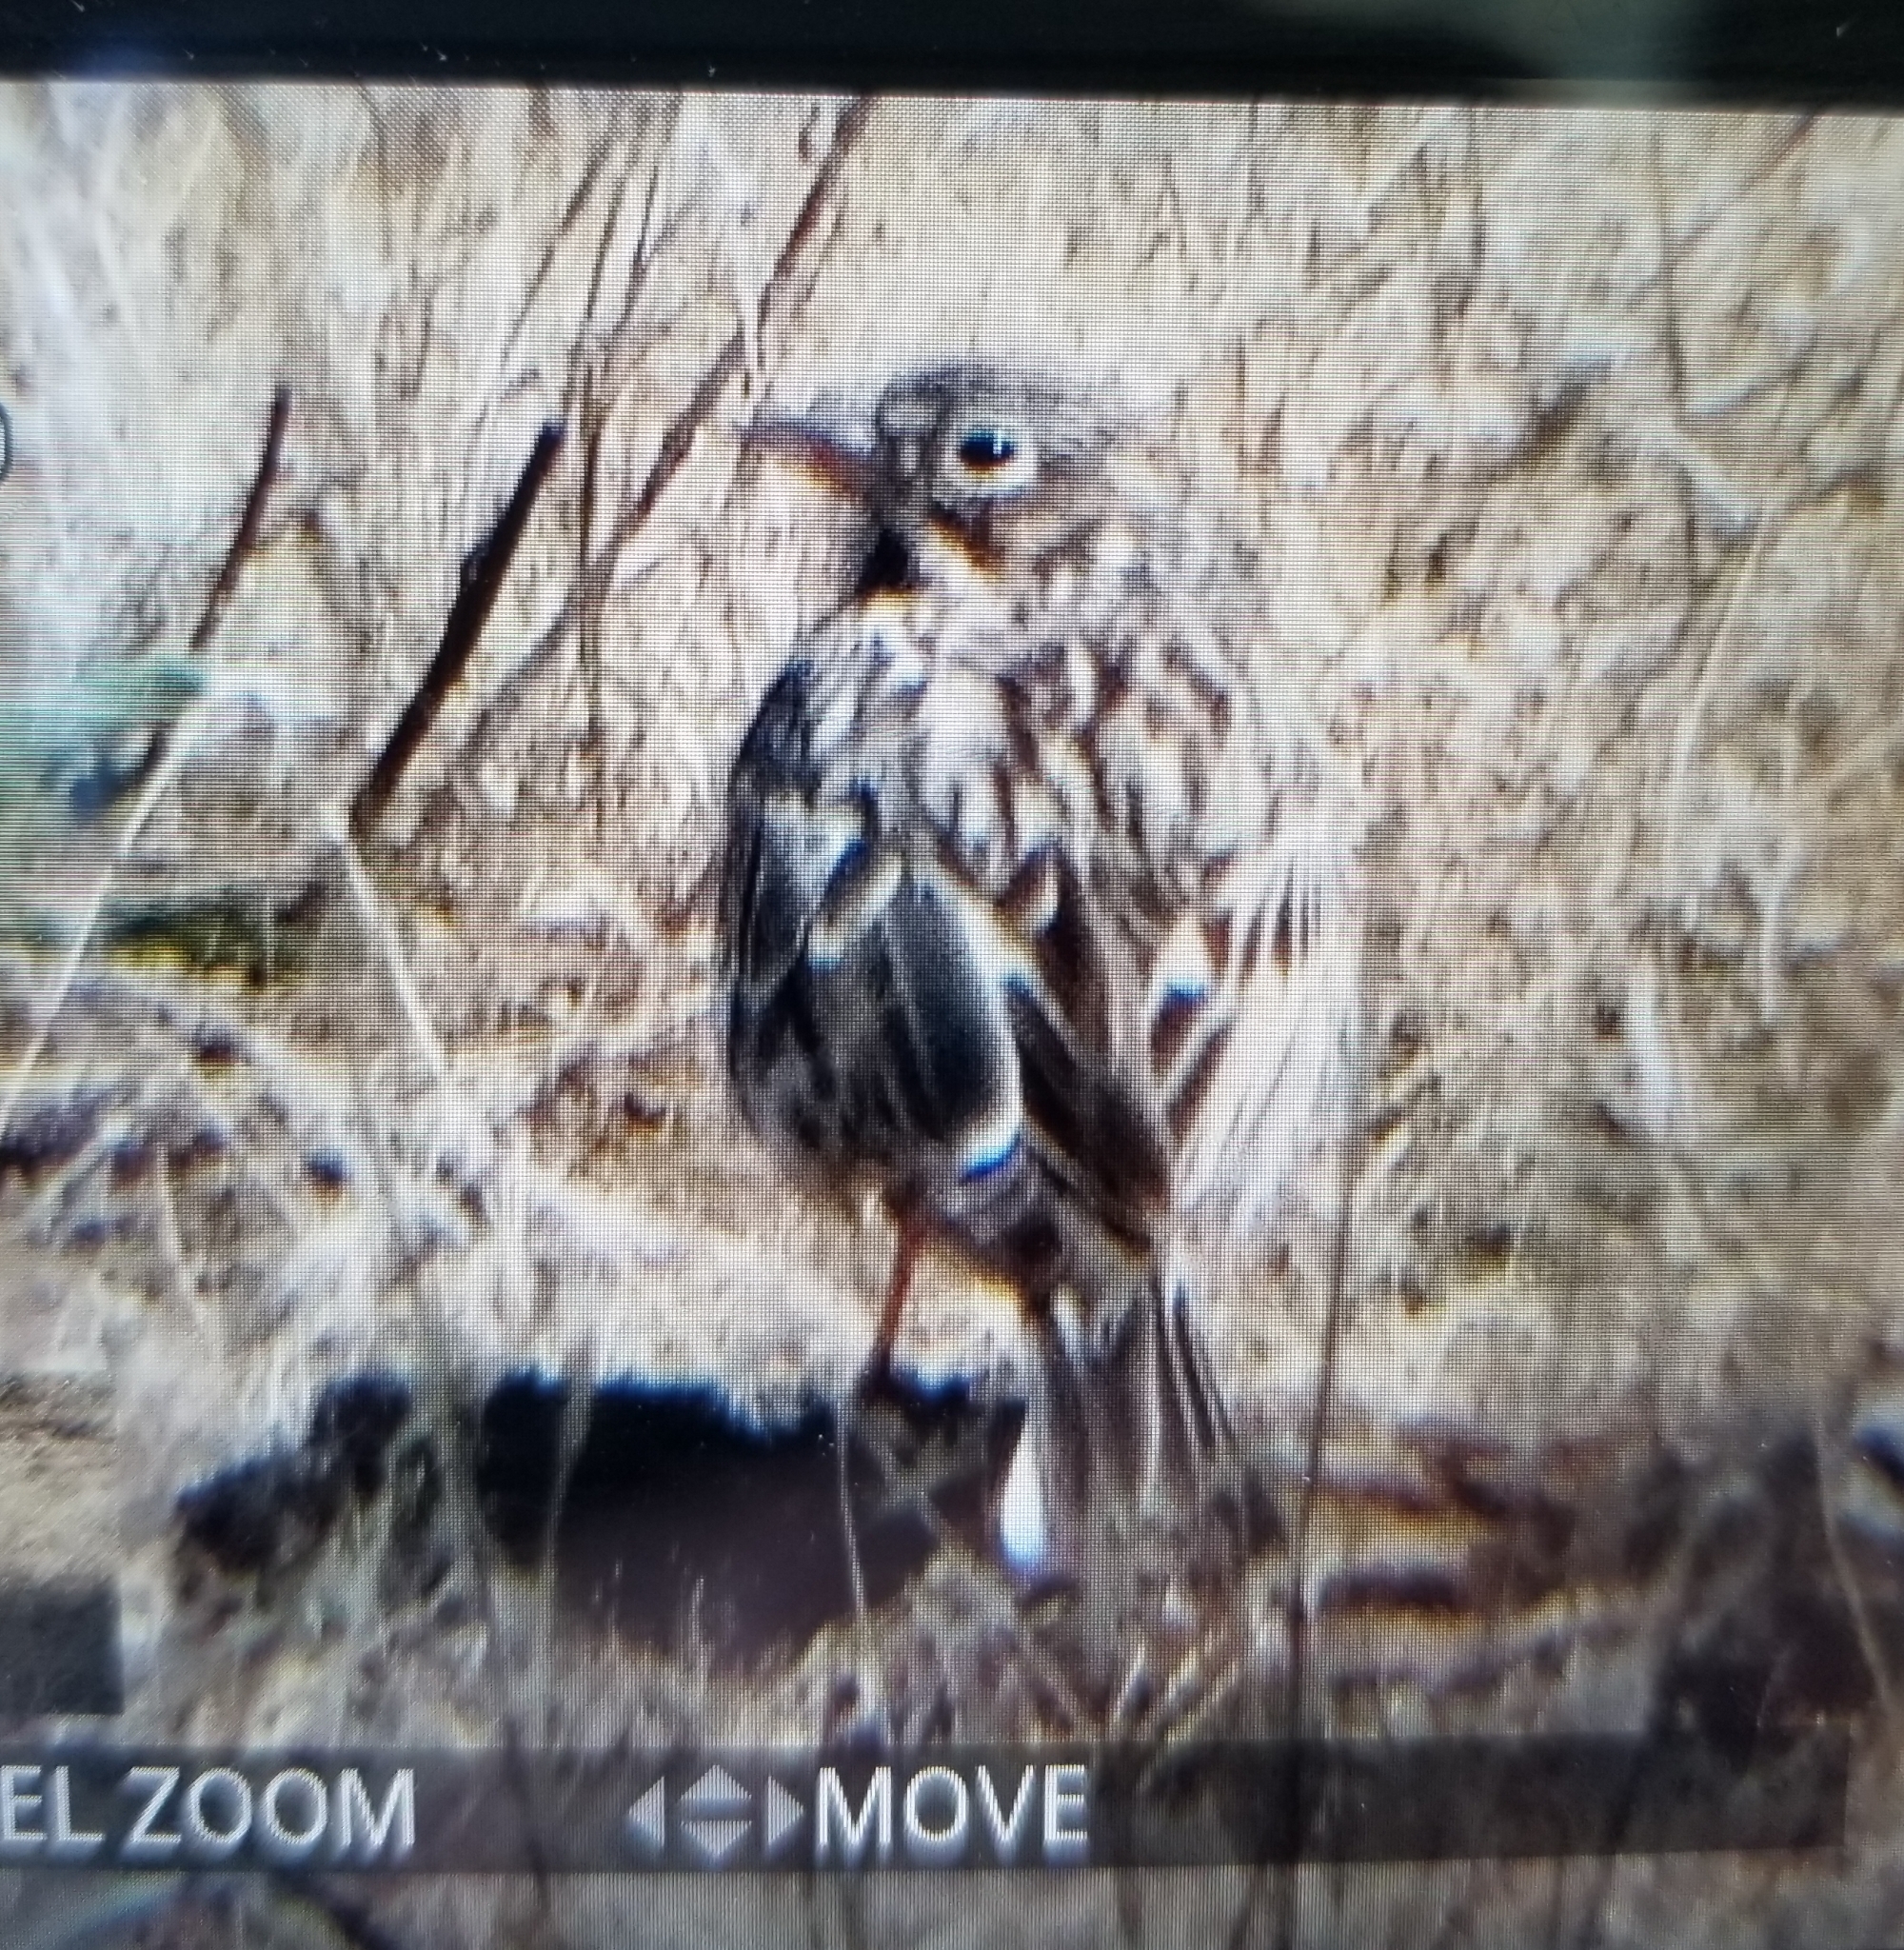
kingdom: Animalia
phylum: Chordata
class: Aves
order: Passeriformes
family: Passerellidae
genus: Pooecetes
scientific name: Pooecetes gramineus
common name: Vesper sparrow
